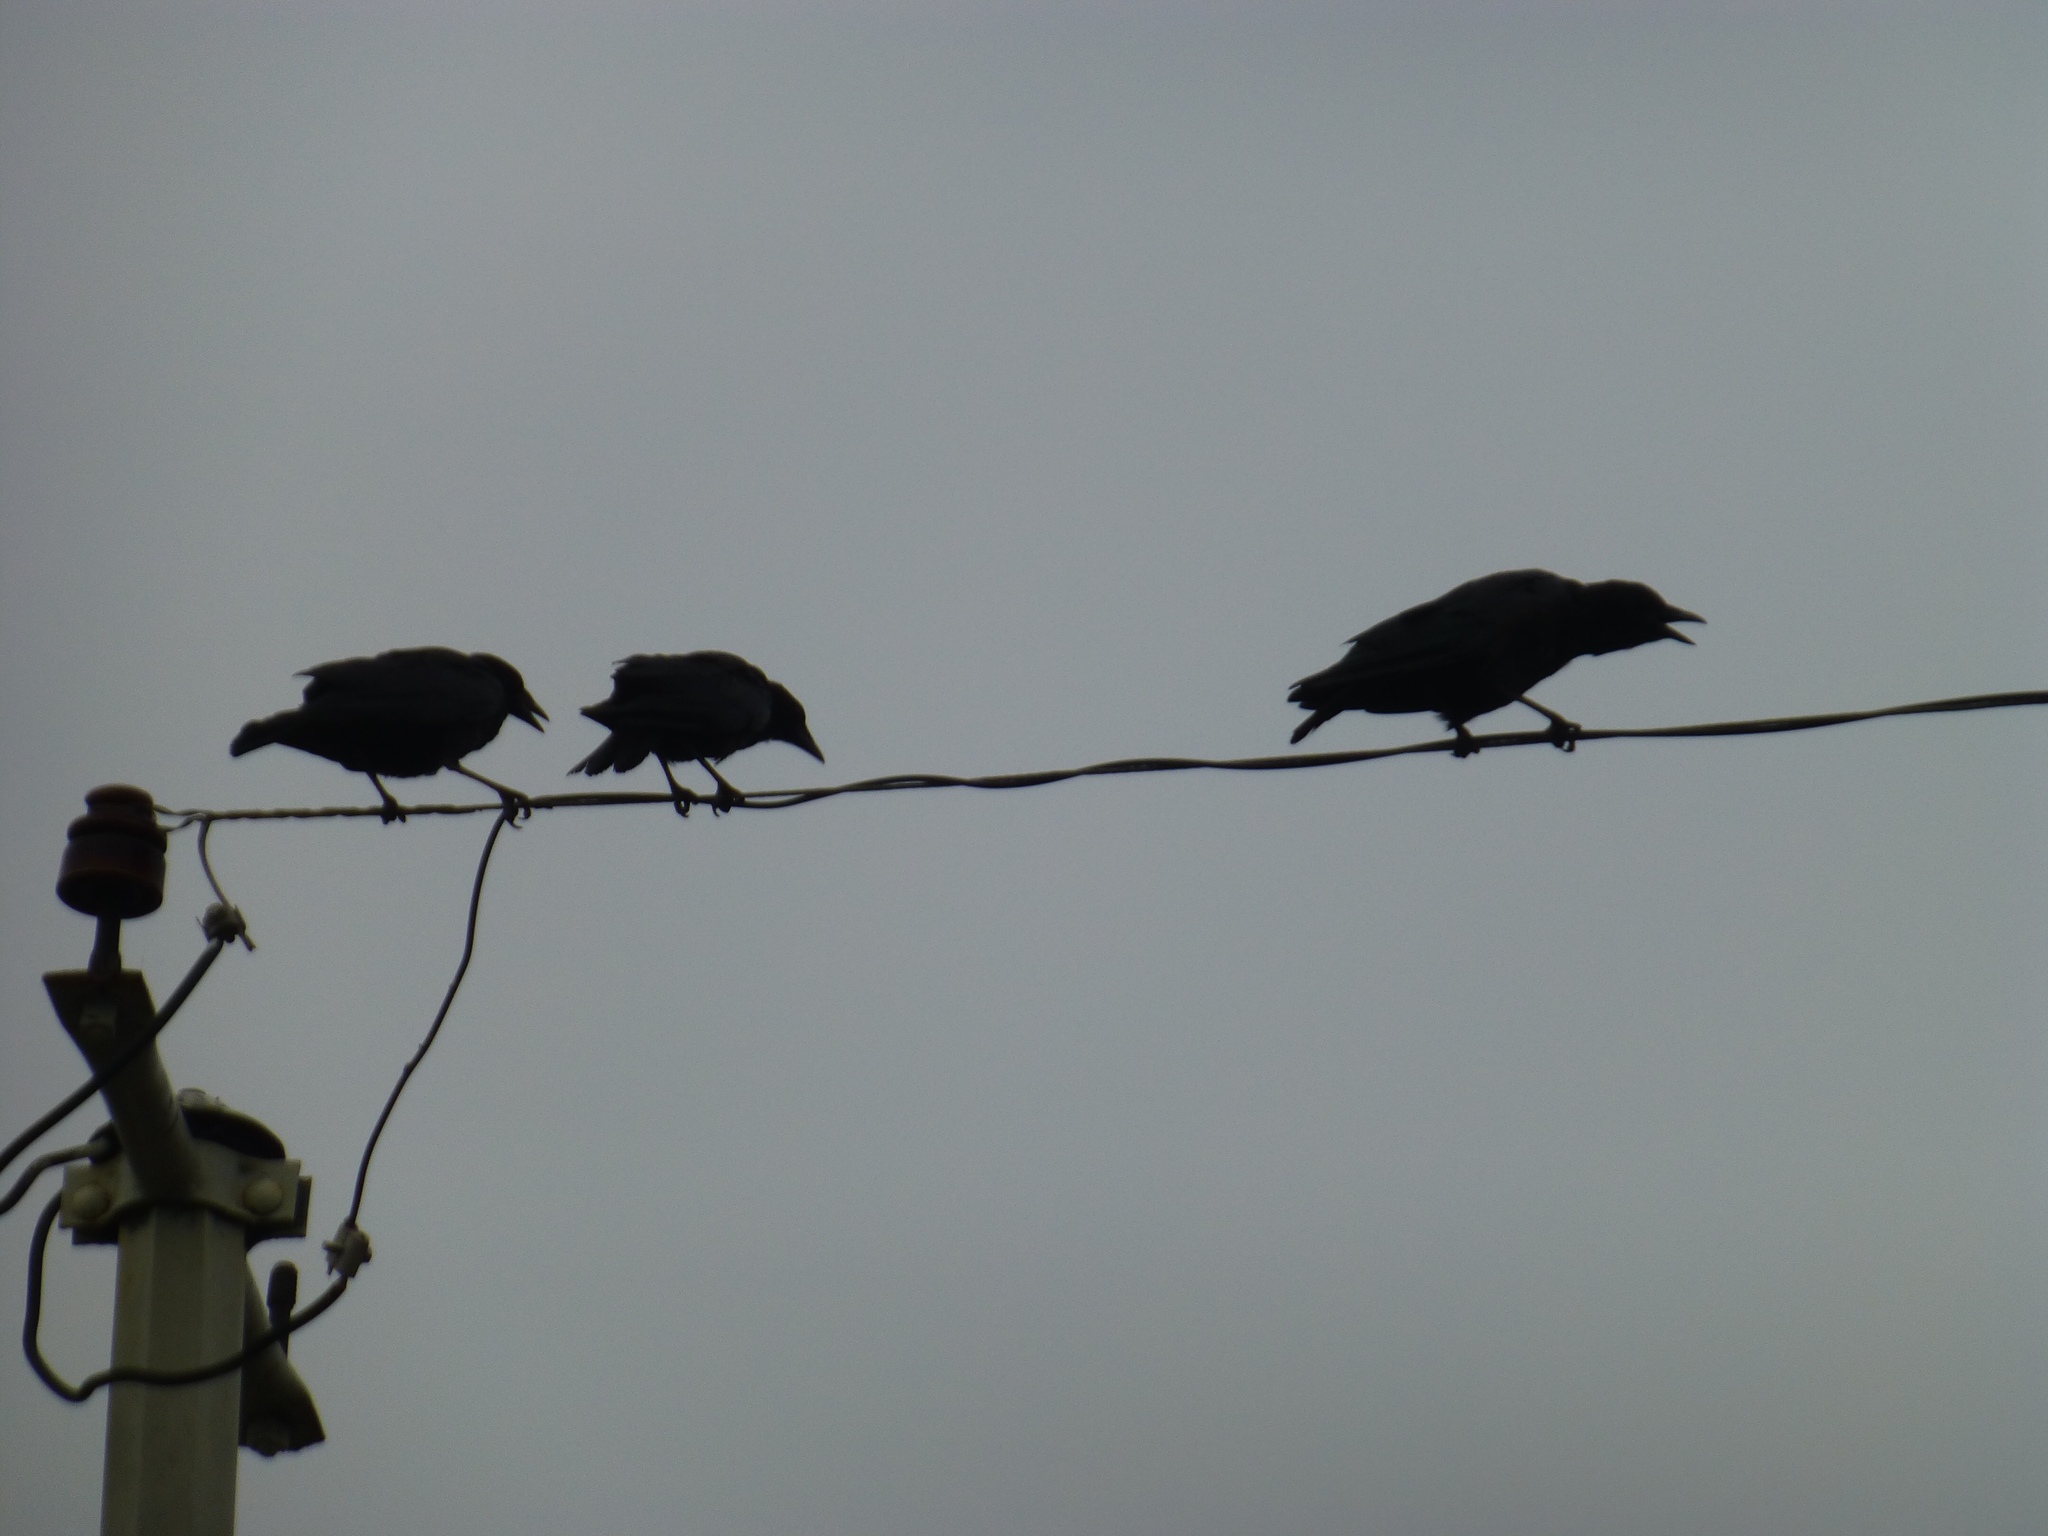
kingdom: Animalia
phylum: Chordata
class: Aves
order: Passeriformes
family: Corvidae
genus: Corvus
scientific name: Corvus brachyrhynchos
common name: American crow
